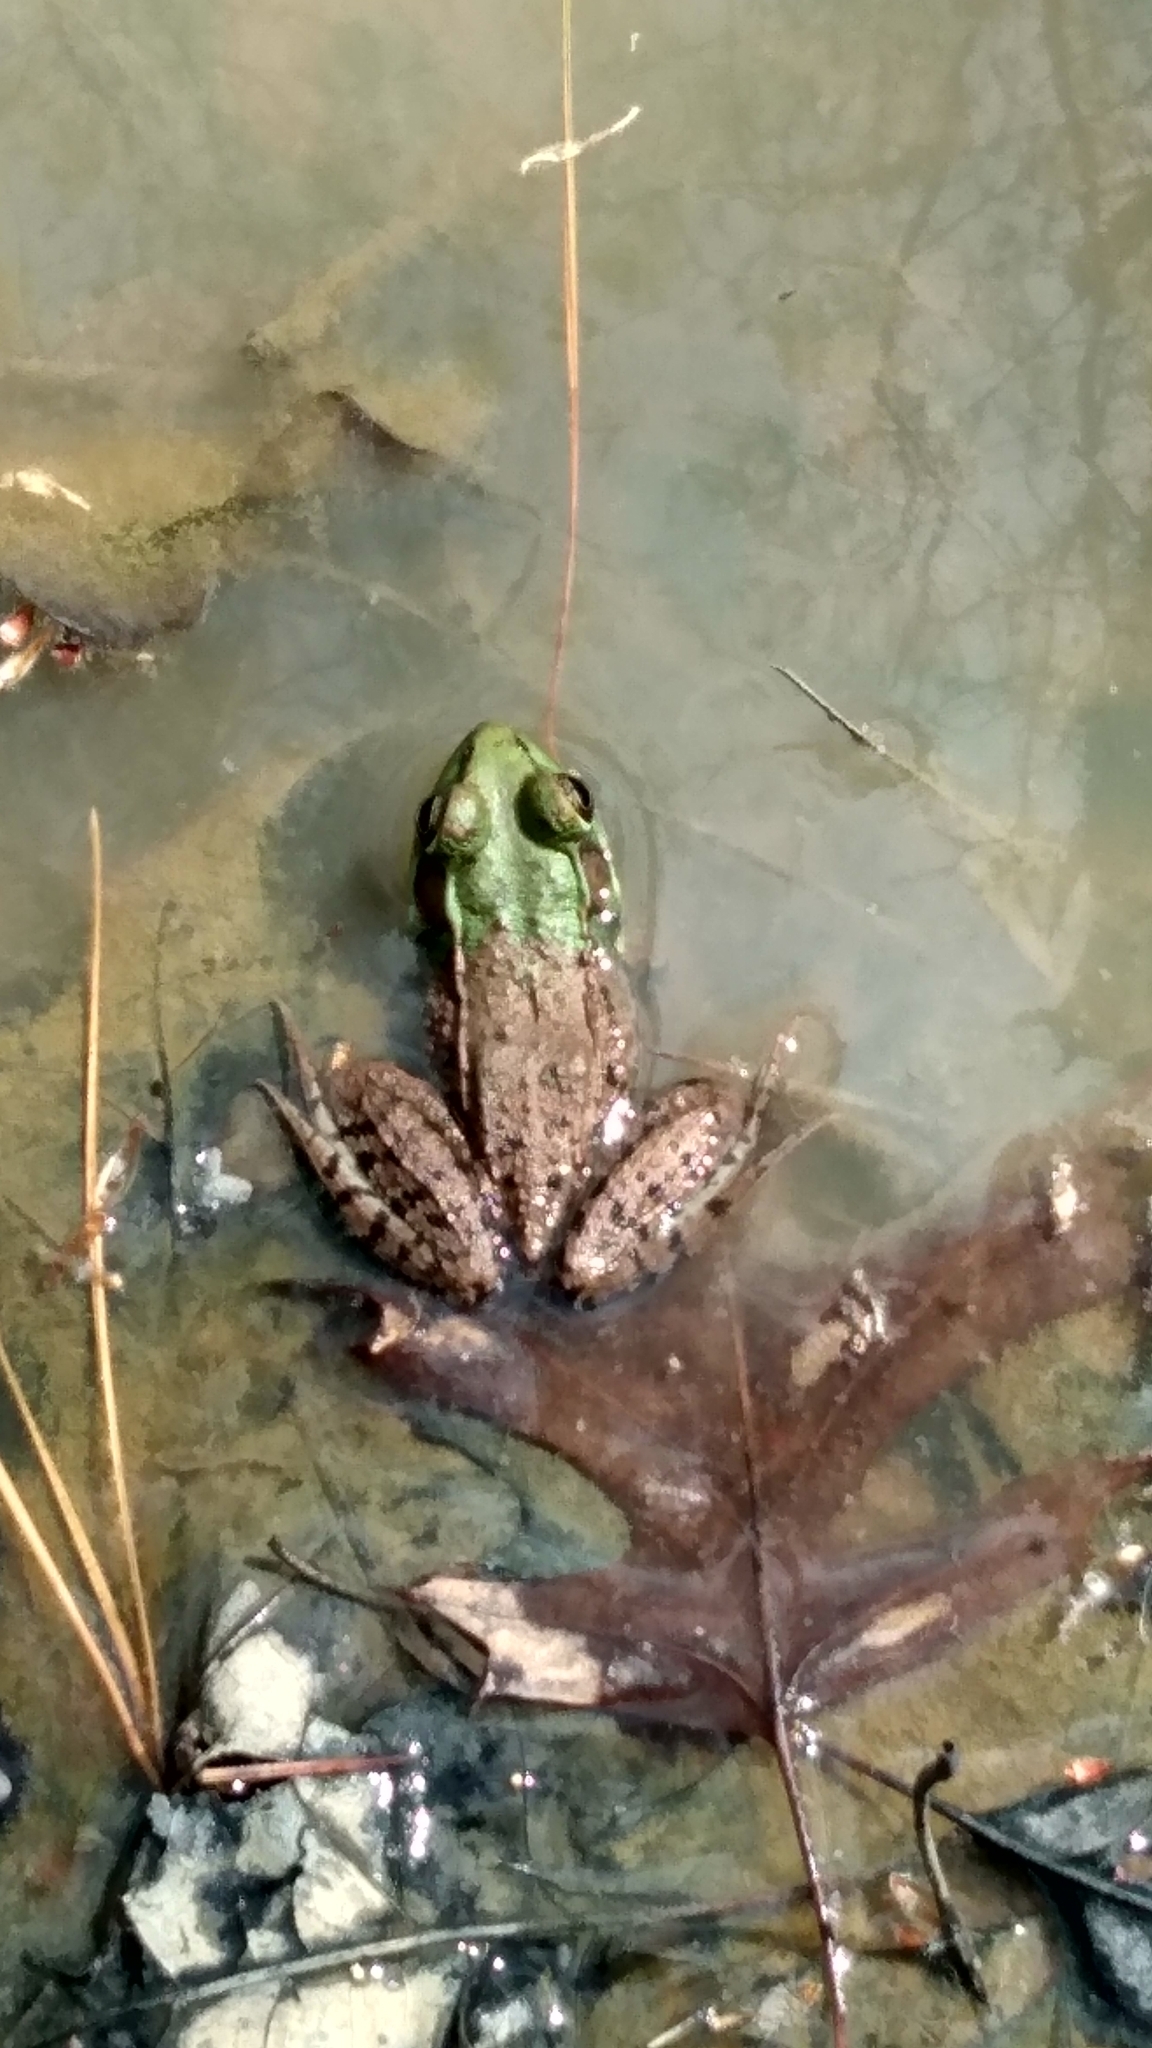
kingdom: Animalia
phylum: Chordata
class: Amphibia
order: Anura
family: Ranidae
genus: Lithobates
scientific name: Lithobates clamitans
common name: Green frog
